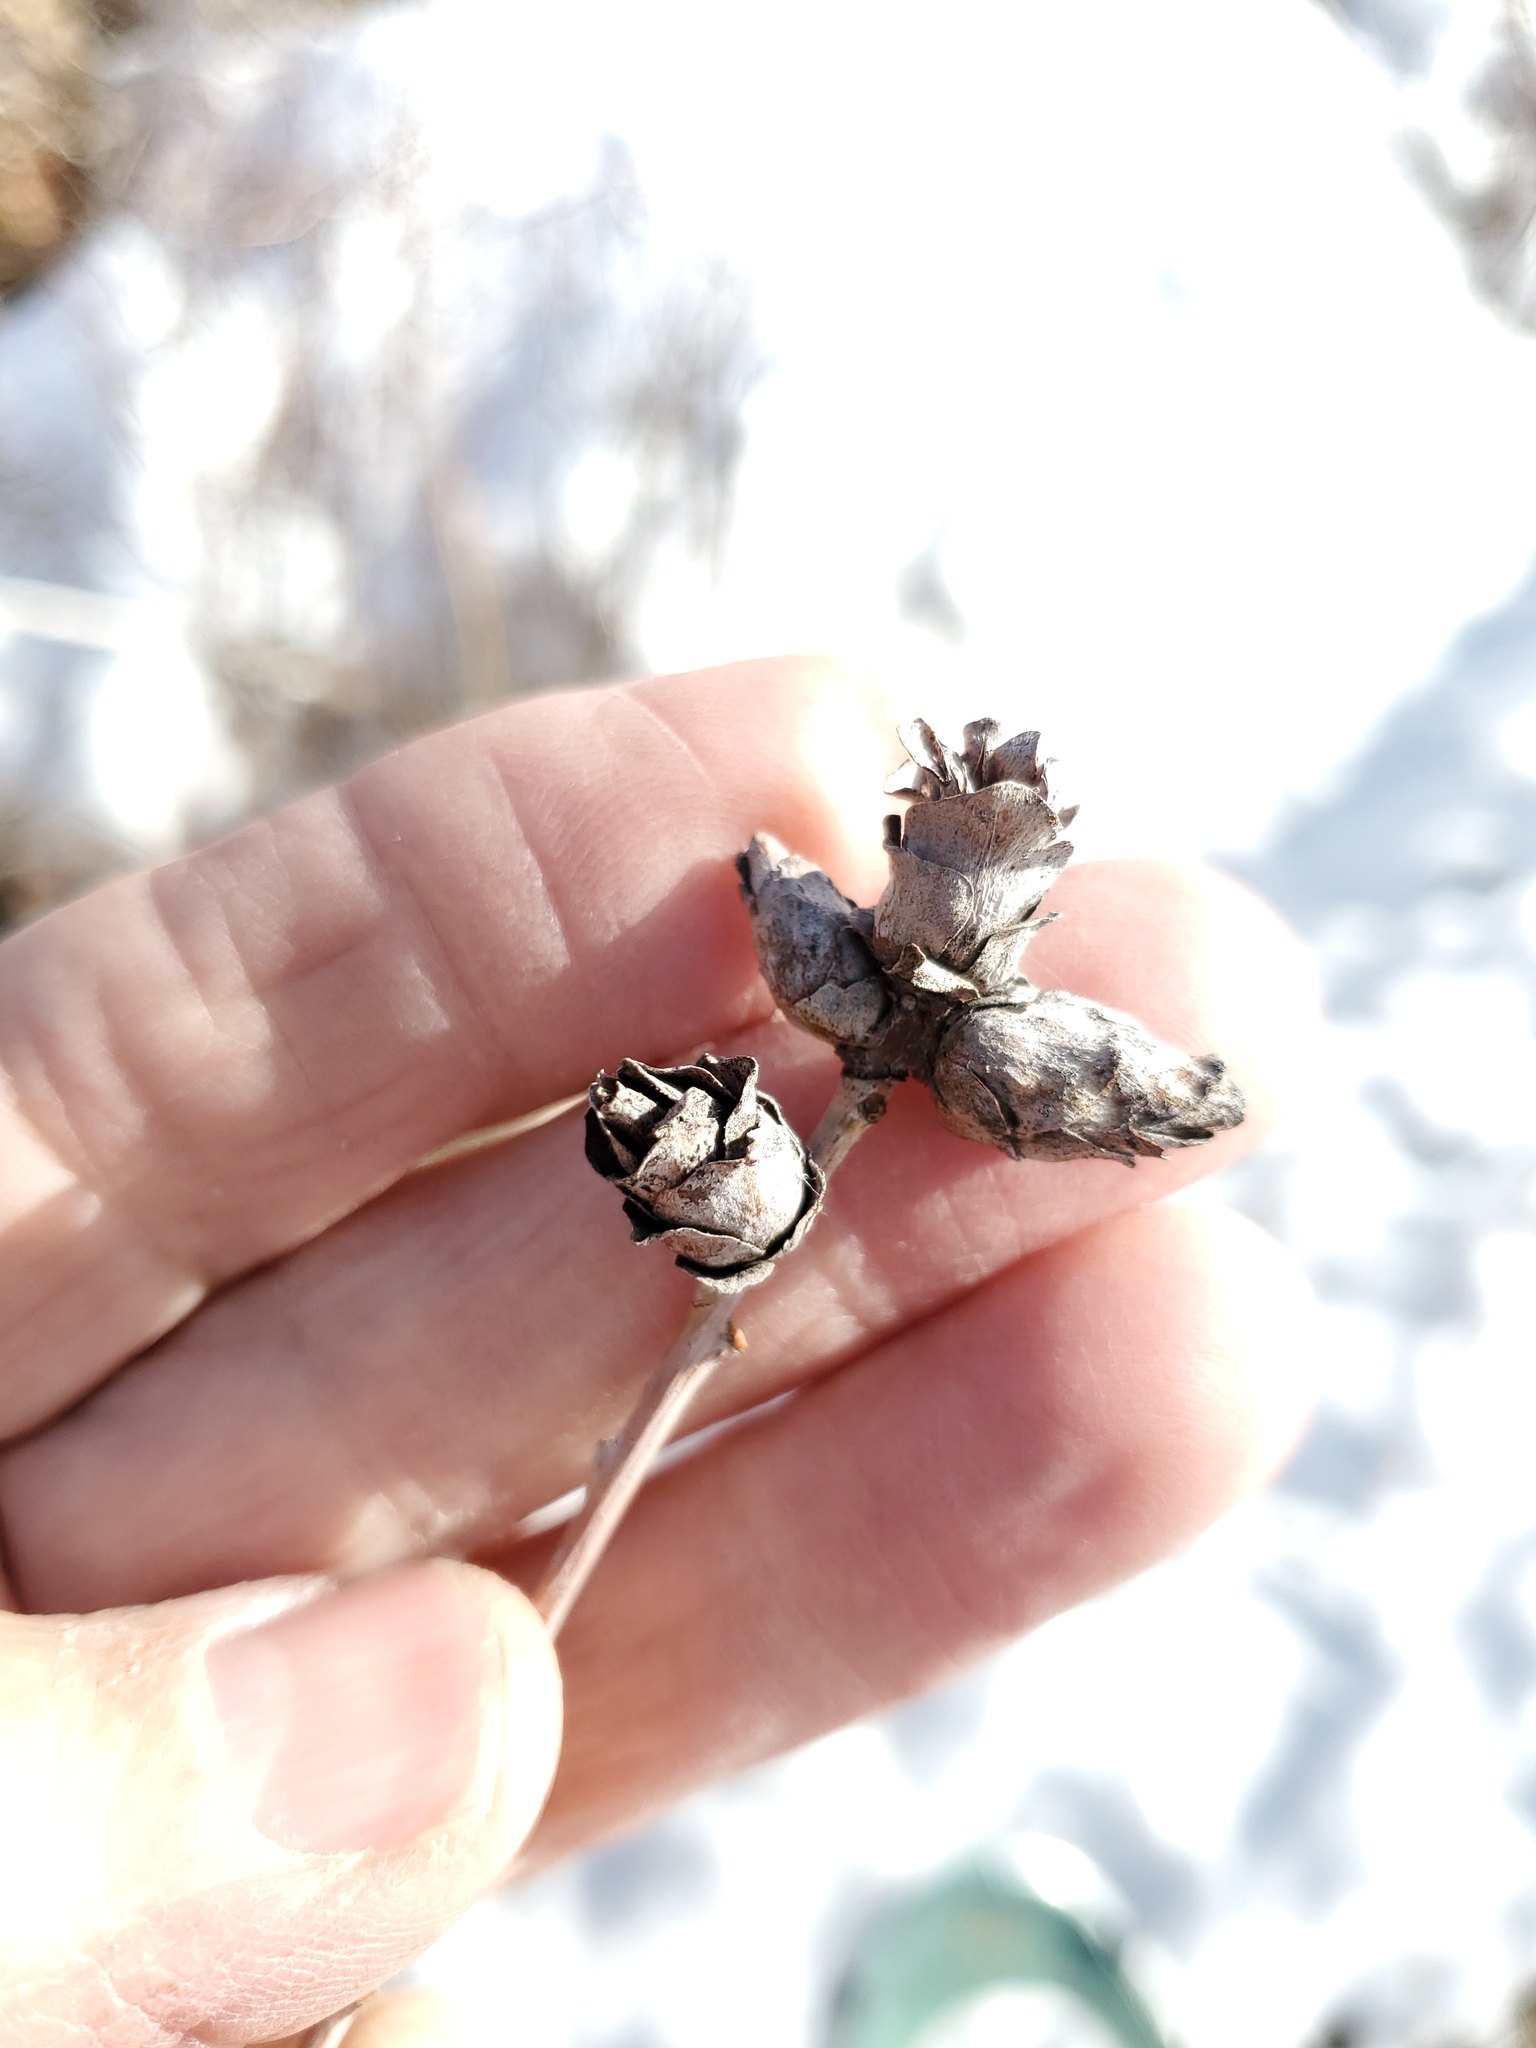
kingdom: Animalia
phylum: Arthropoda
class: Insecta
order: Diptera
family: Cecidomyiidae
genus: Rabdophaga
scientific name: Rabdophaga strobiloides
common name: Willow pinecone gall midge
